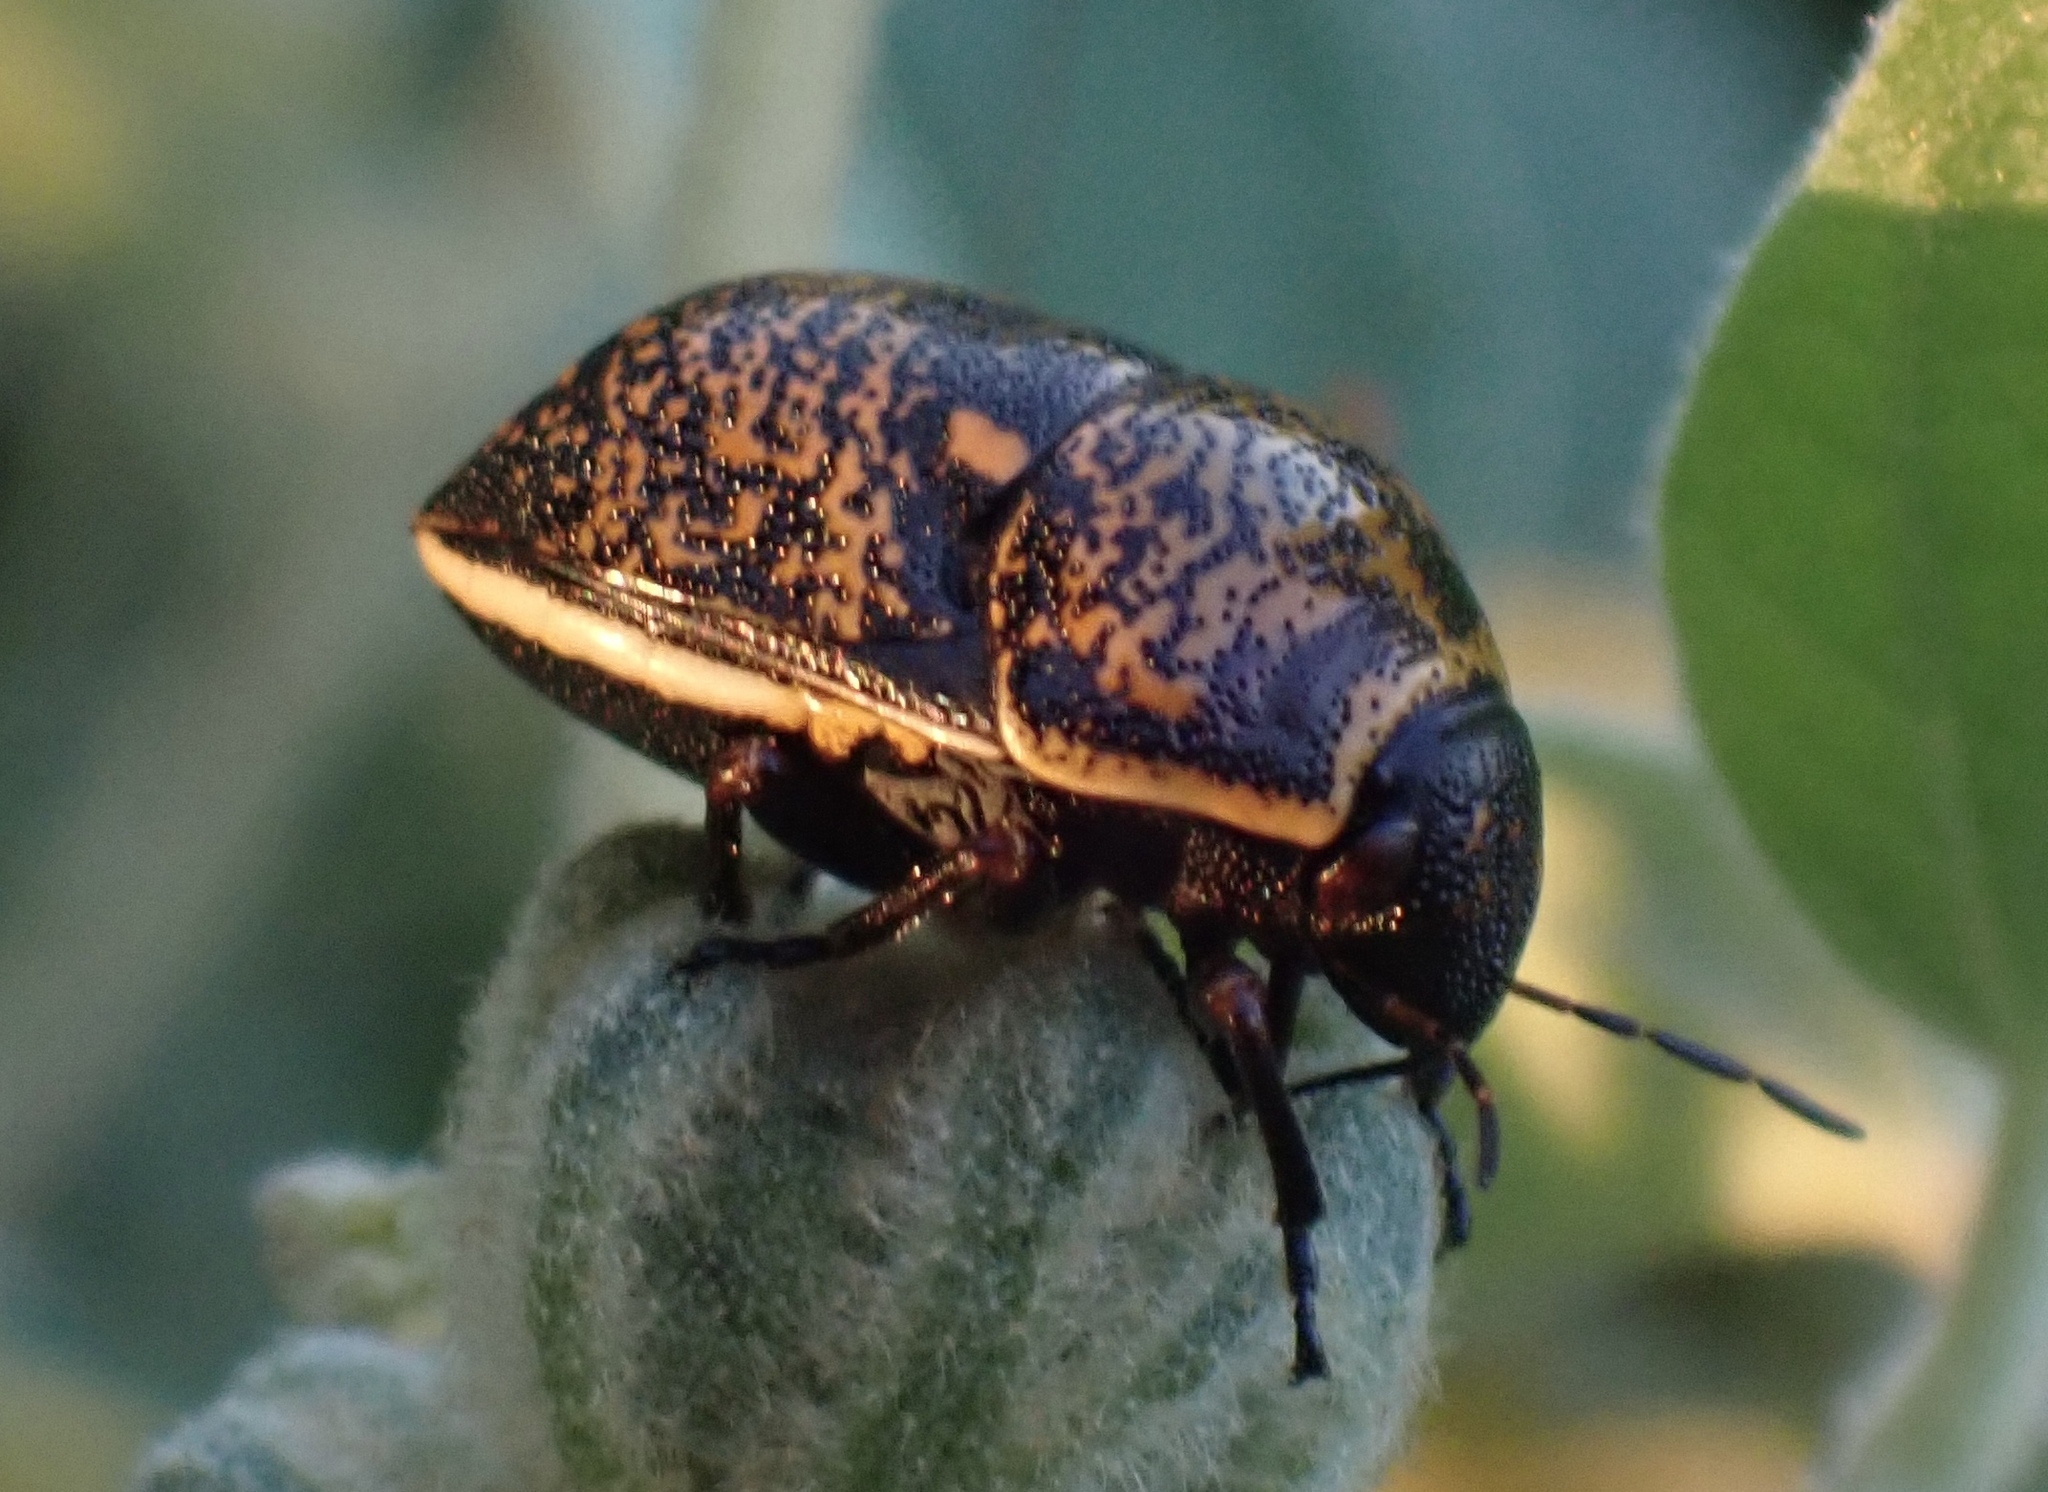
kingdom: Animalia
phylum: Arthropoda
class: Insecta
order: Hemiptera
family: Scutelleridae
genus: Orsilochides
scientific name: Orsilochides guttata
